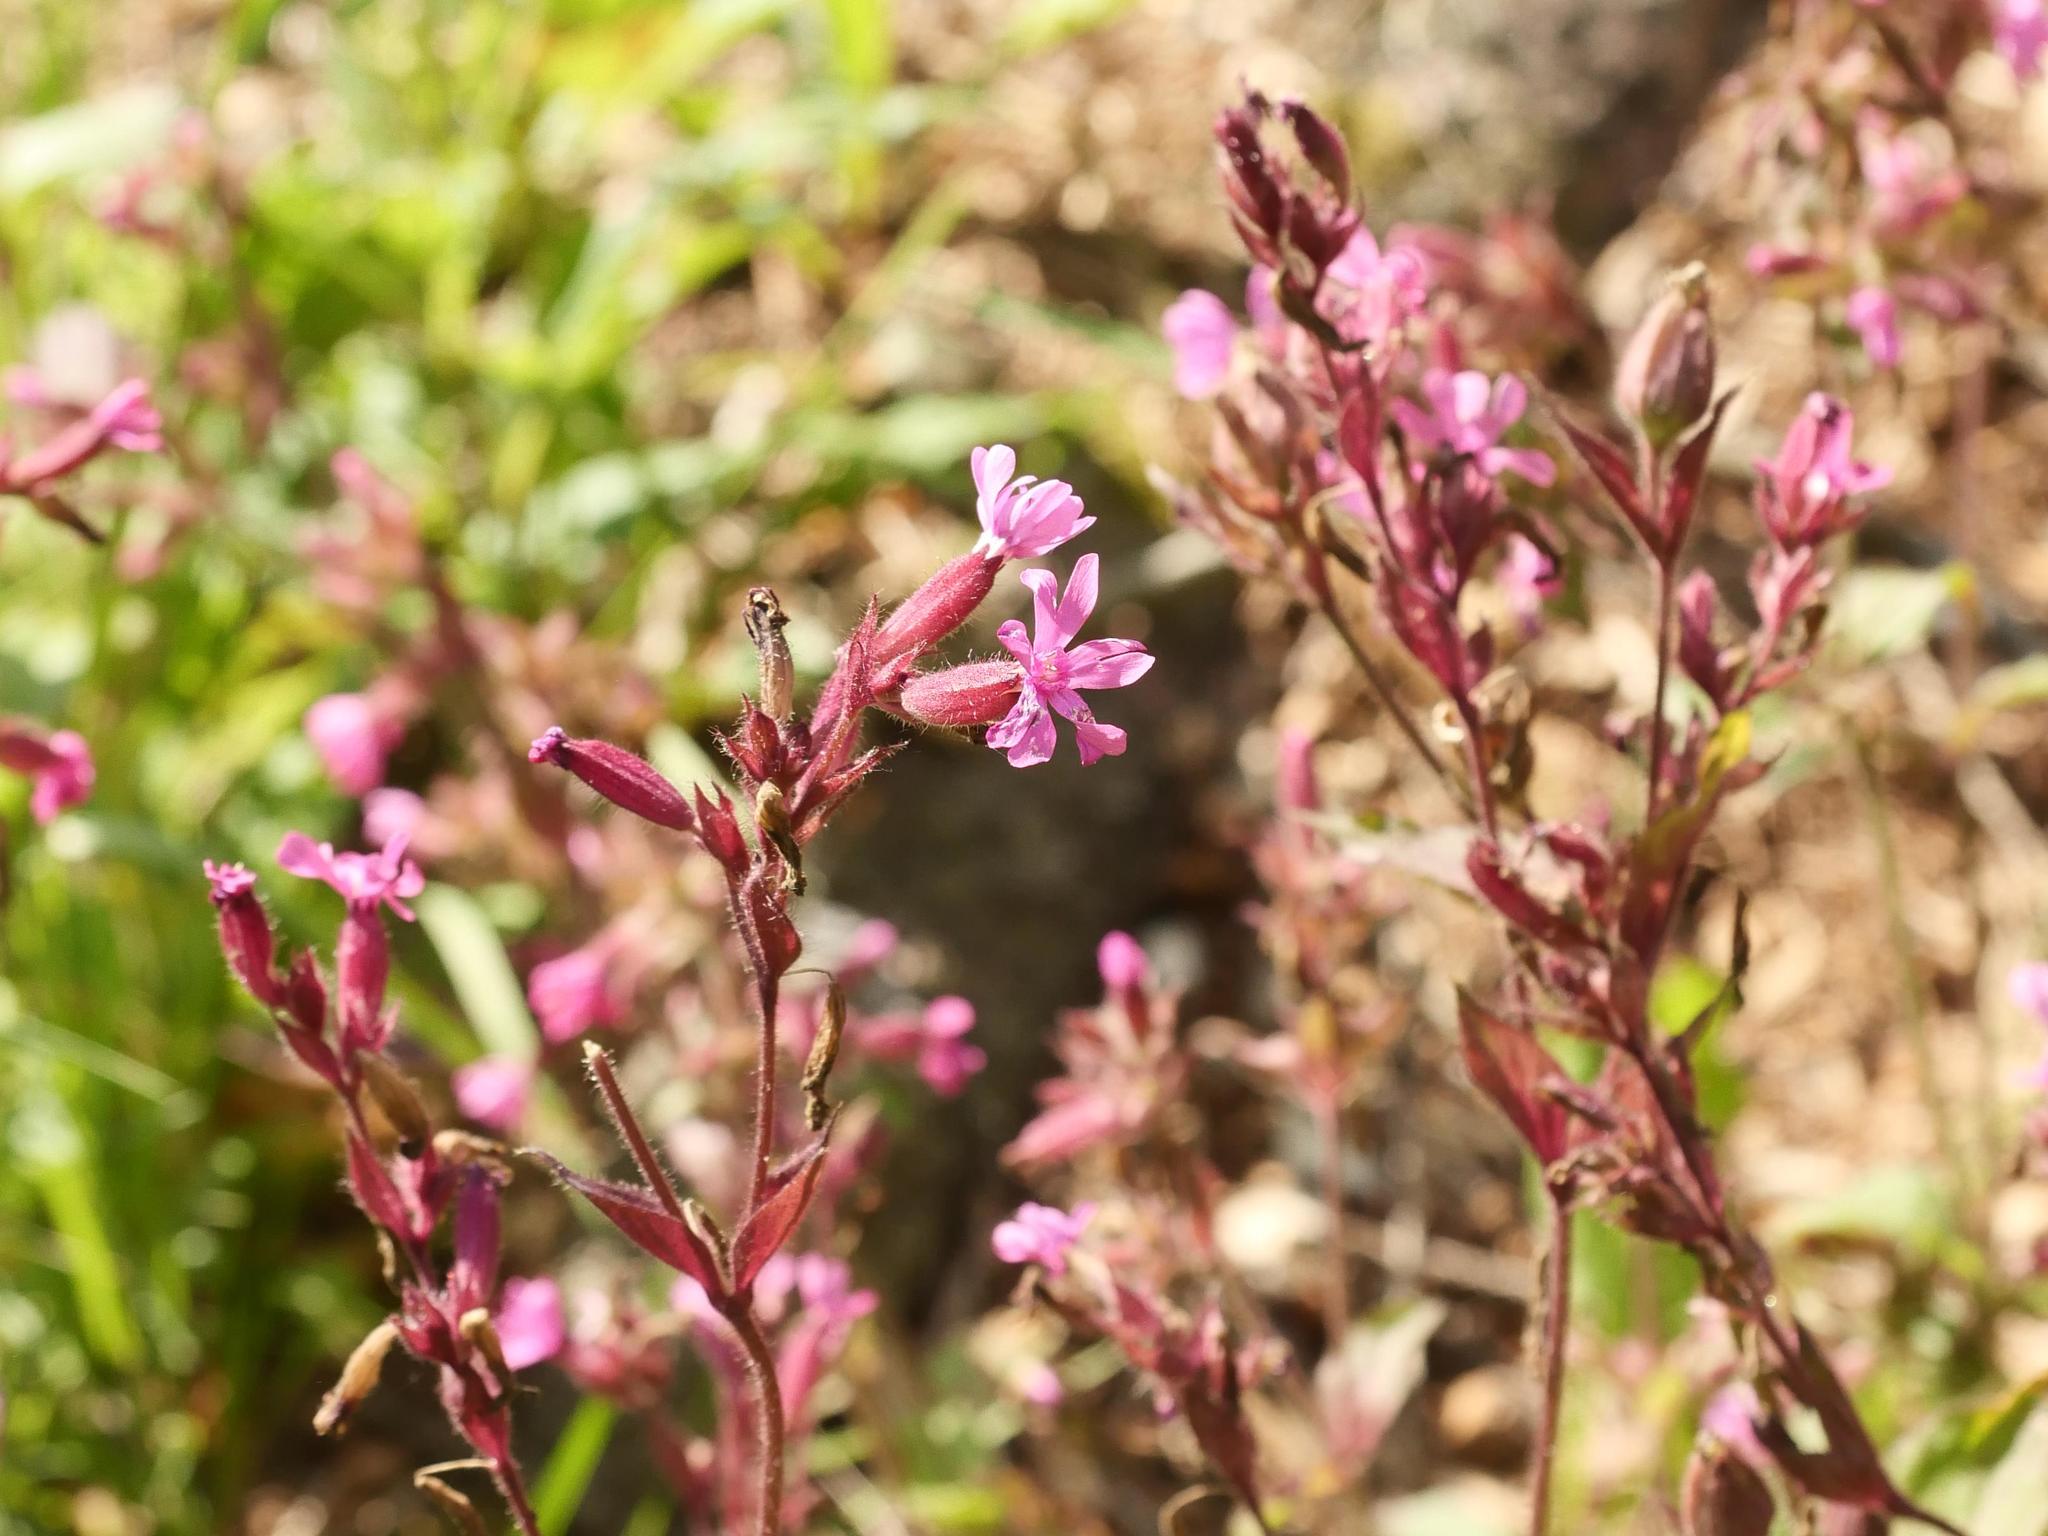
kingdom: Plantae
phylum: Tracheophyta
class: Magnoliopsida
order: Caryophyllales
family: Caryophyllaceae
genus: Silene
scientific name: Silene dioica
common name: Red campion
